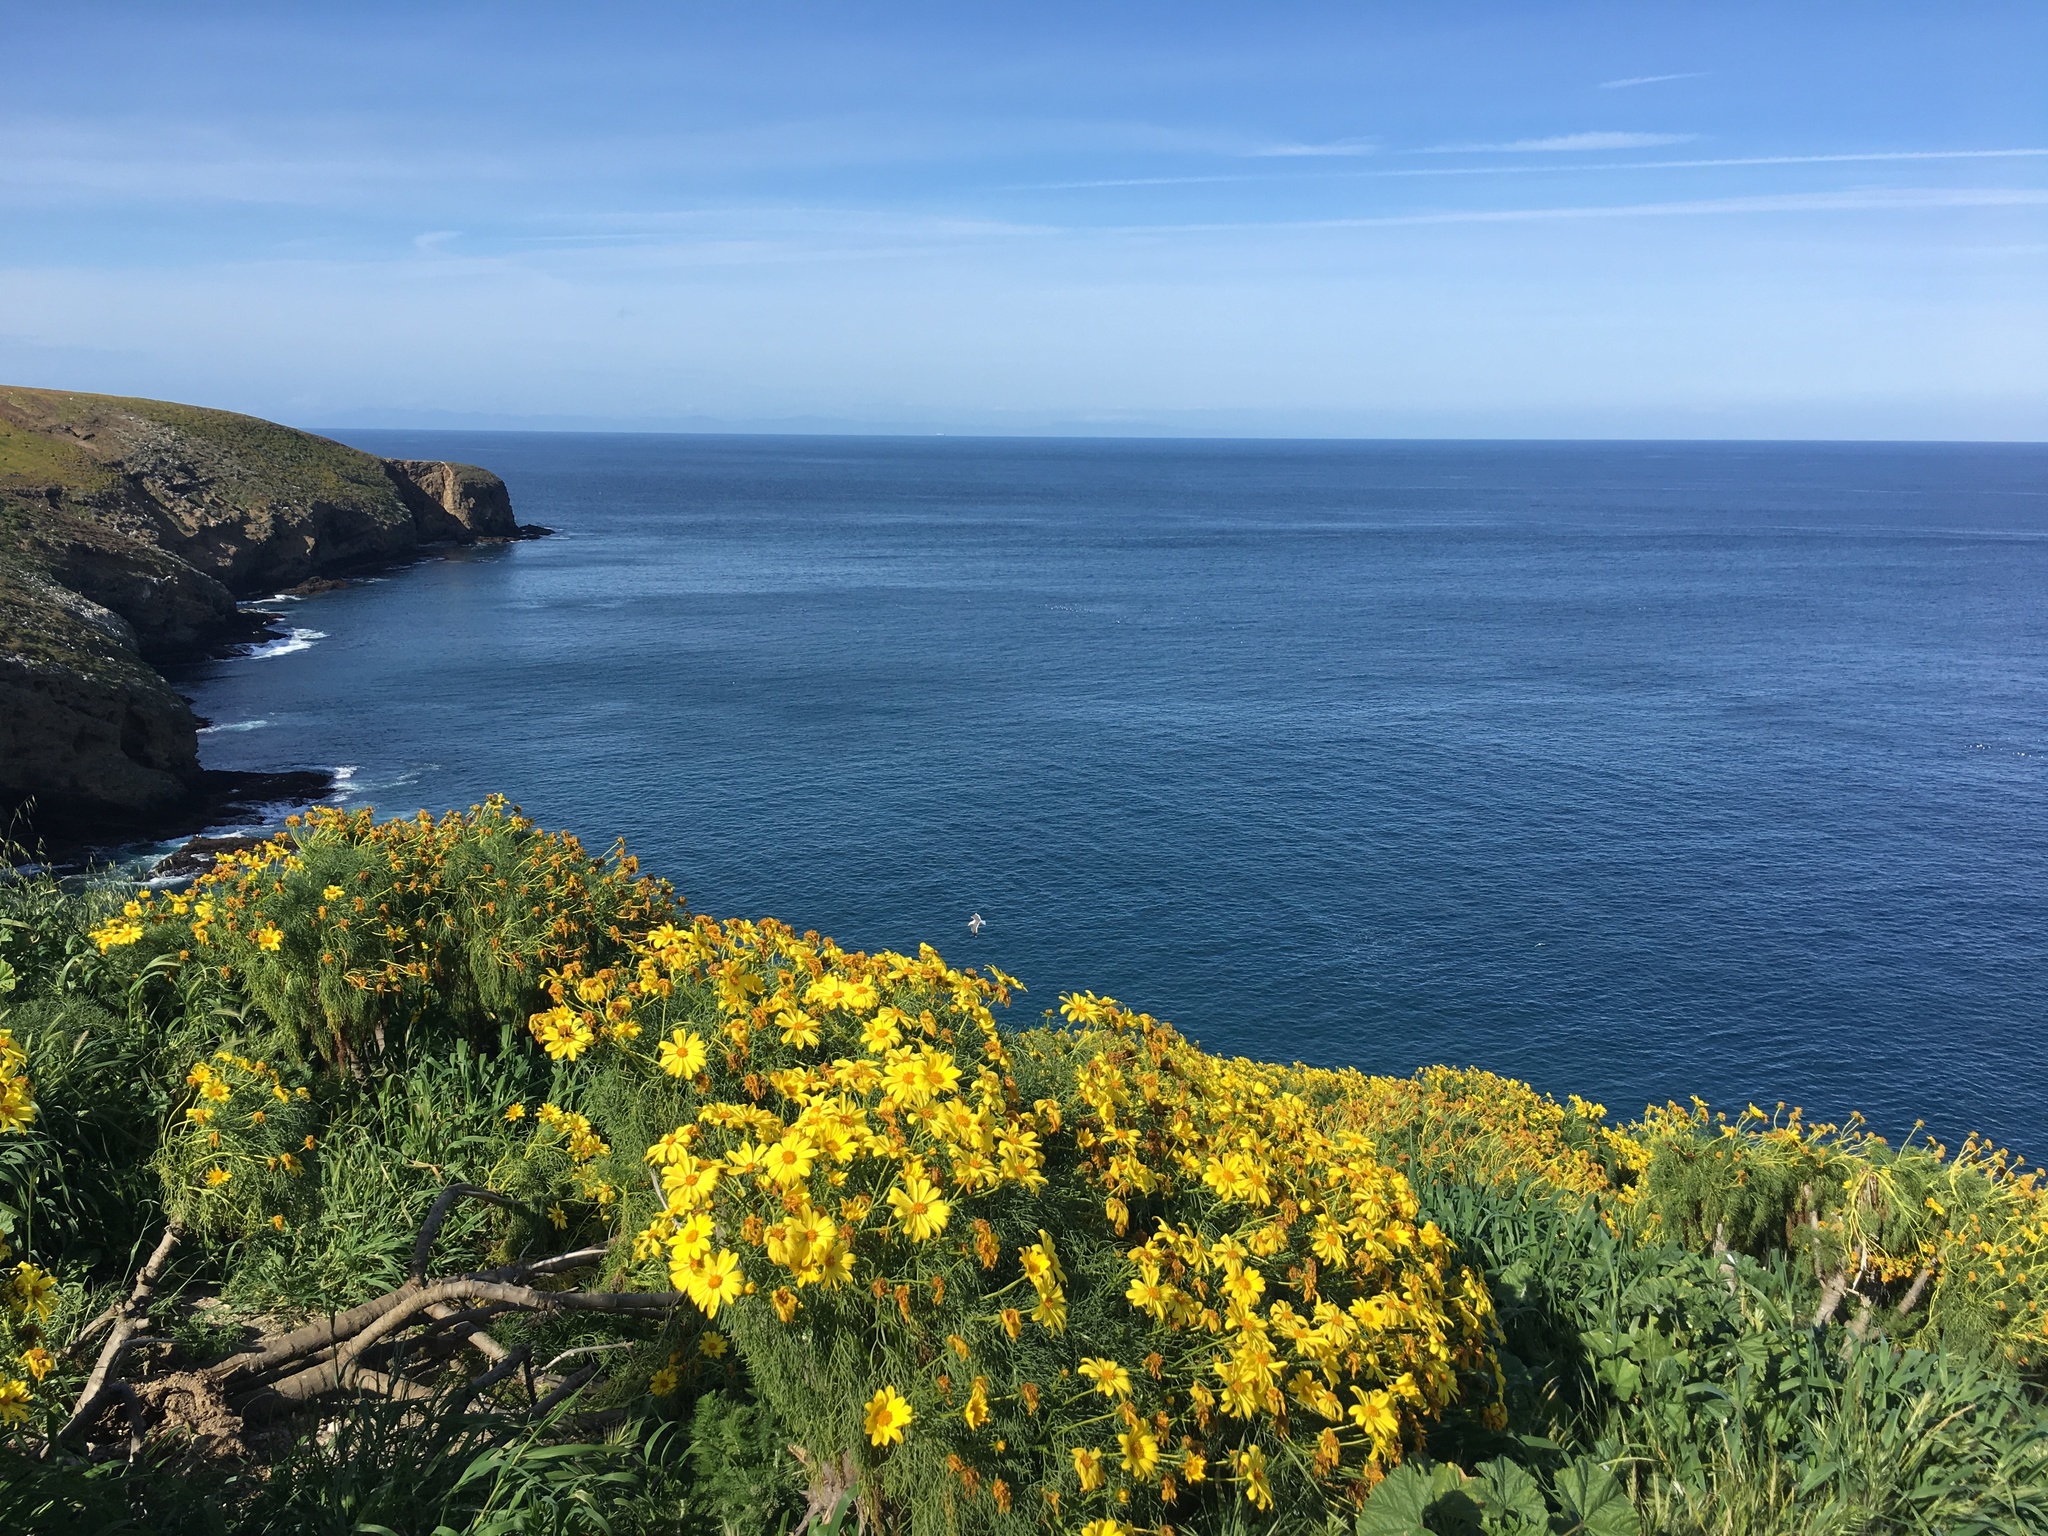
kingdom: Plantae
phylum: Tracheophyta
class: Magnoliopsida
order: Asterales
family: Asteraceae
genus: Coreopsis
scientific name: Coreopsis gigantea
